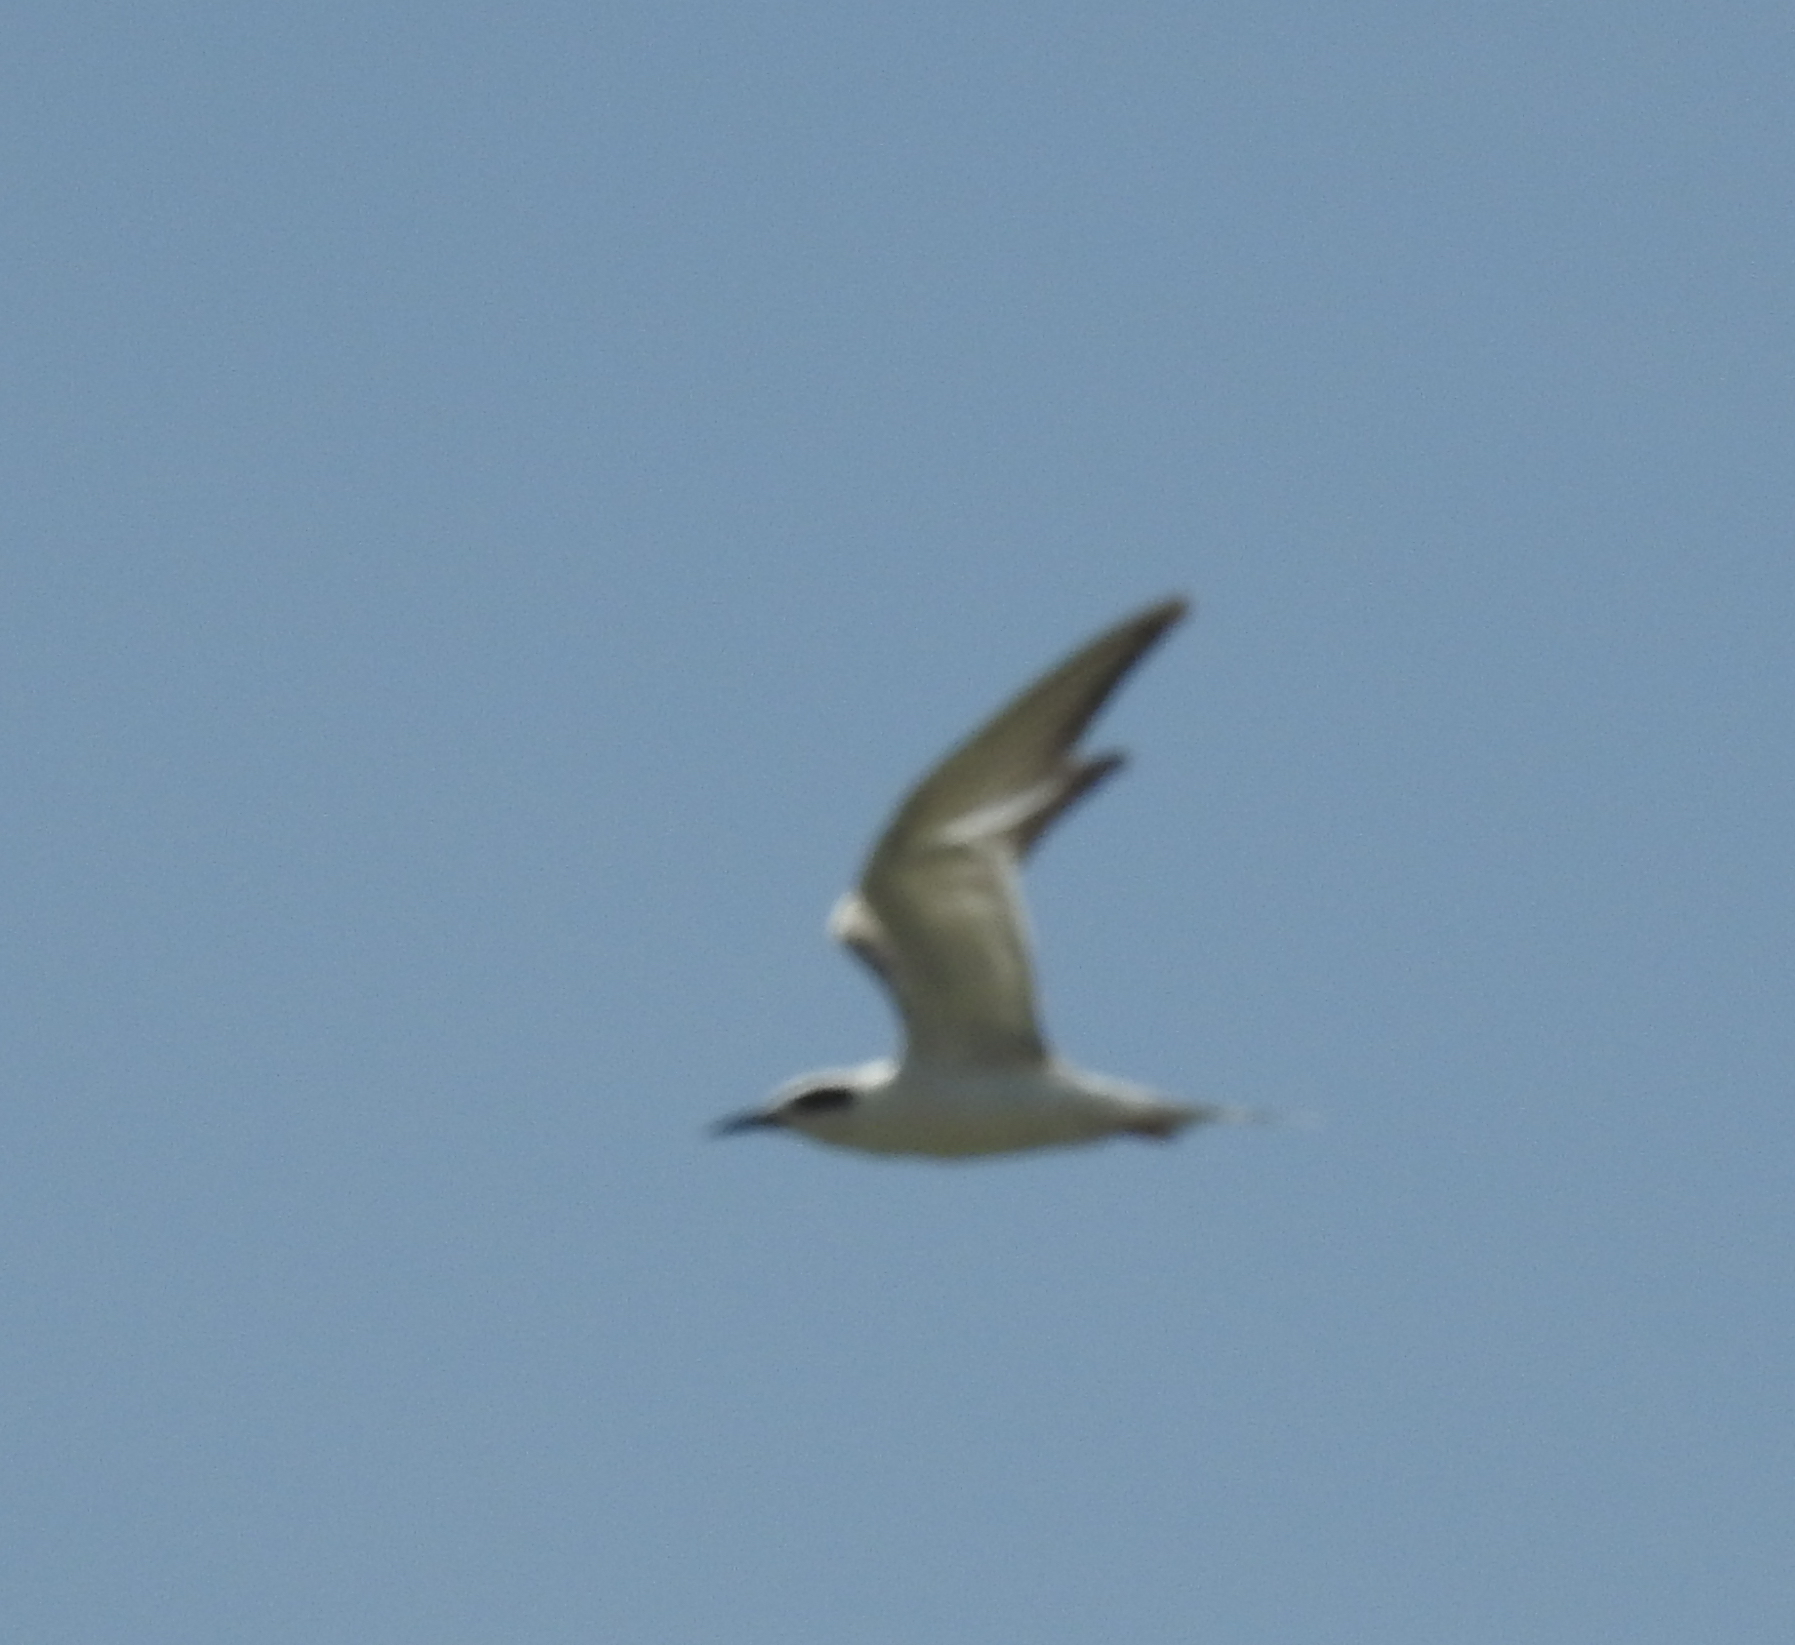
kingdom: Animalia
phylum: Chordata
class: Aves
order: Charadriiformes
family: Laridae
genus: Sterna
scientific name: Sterna forsteri
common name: Forster's tern
